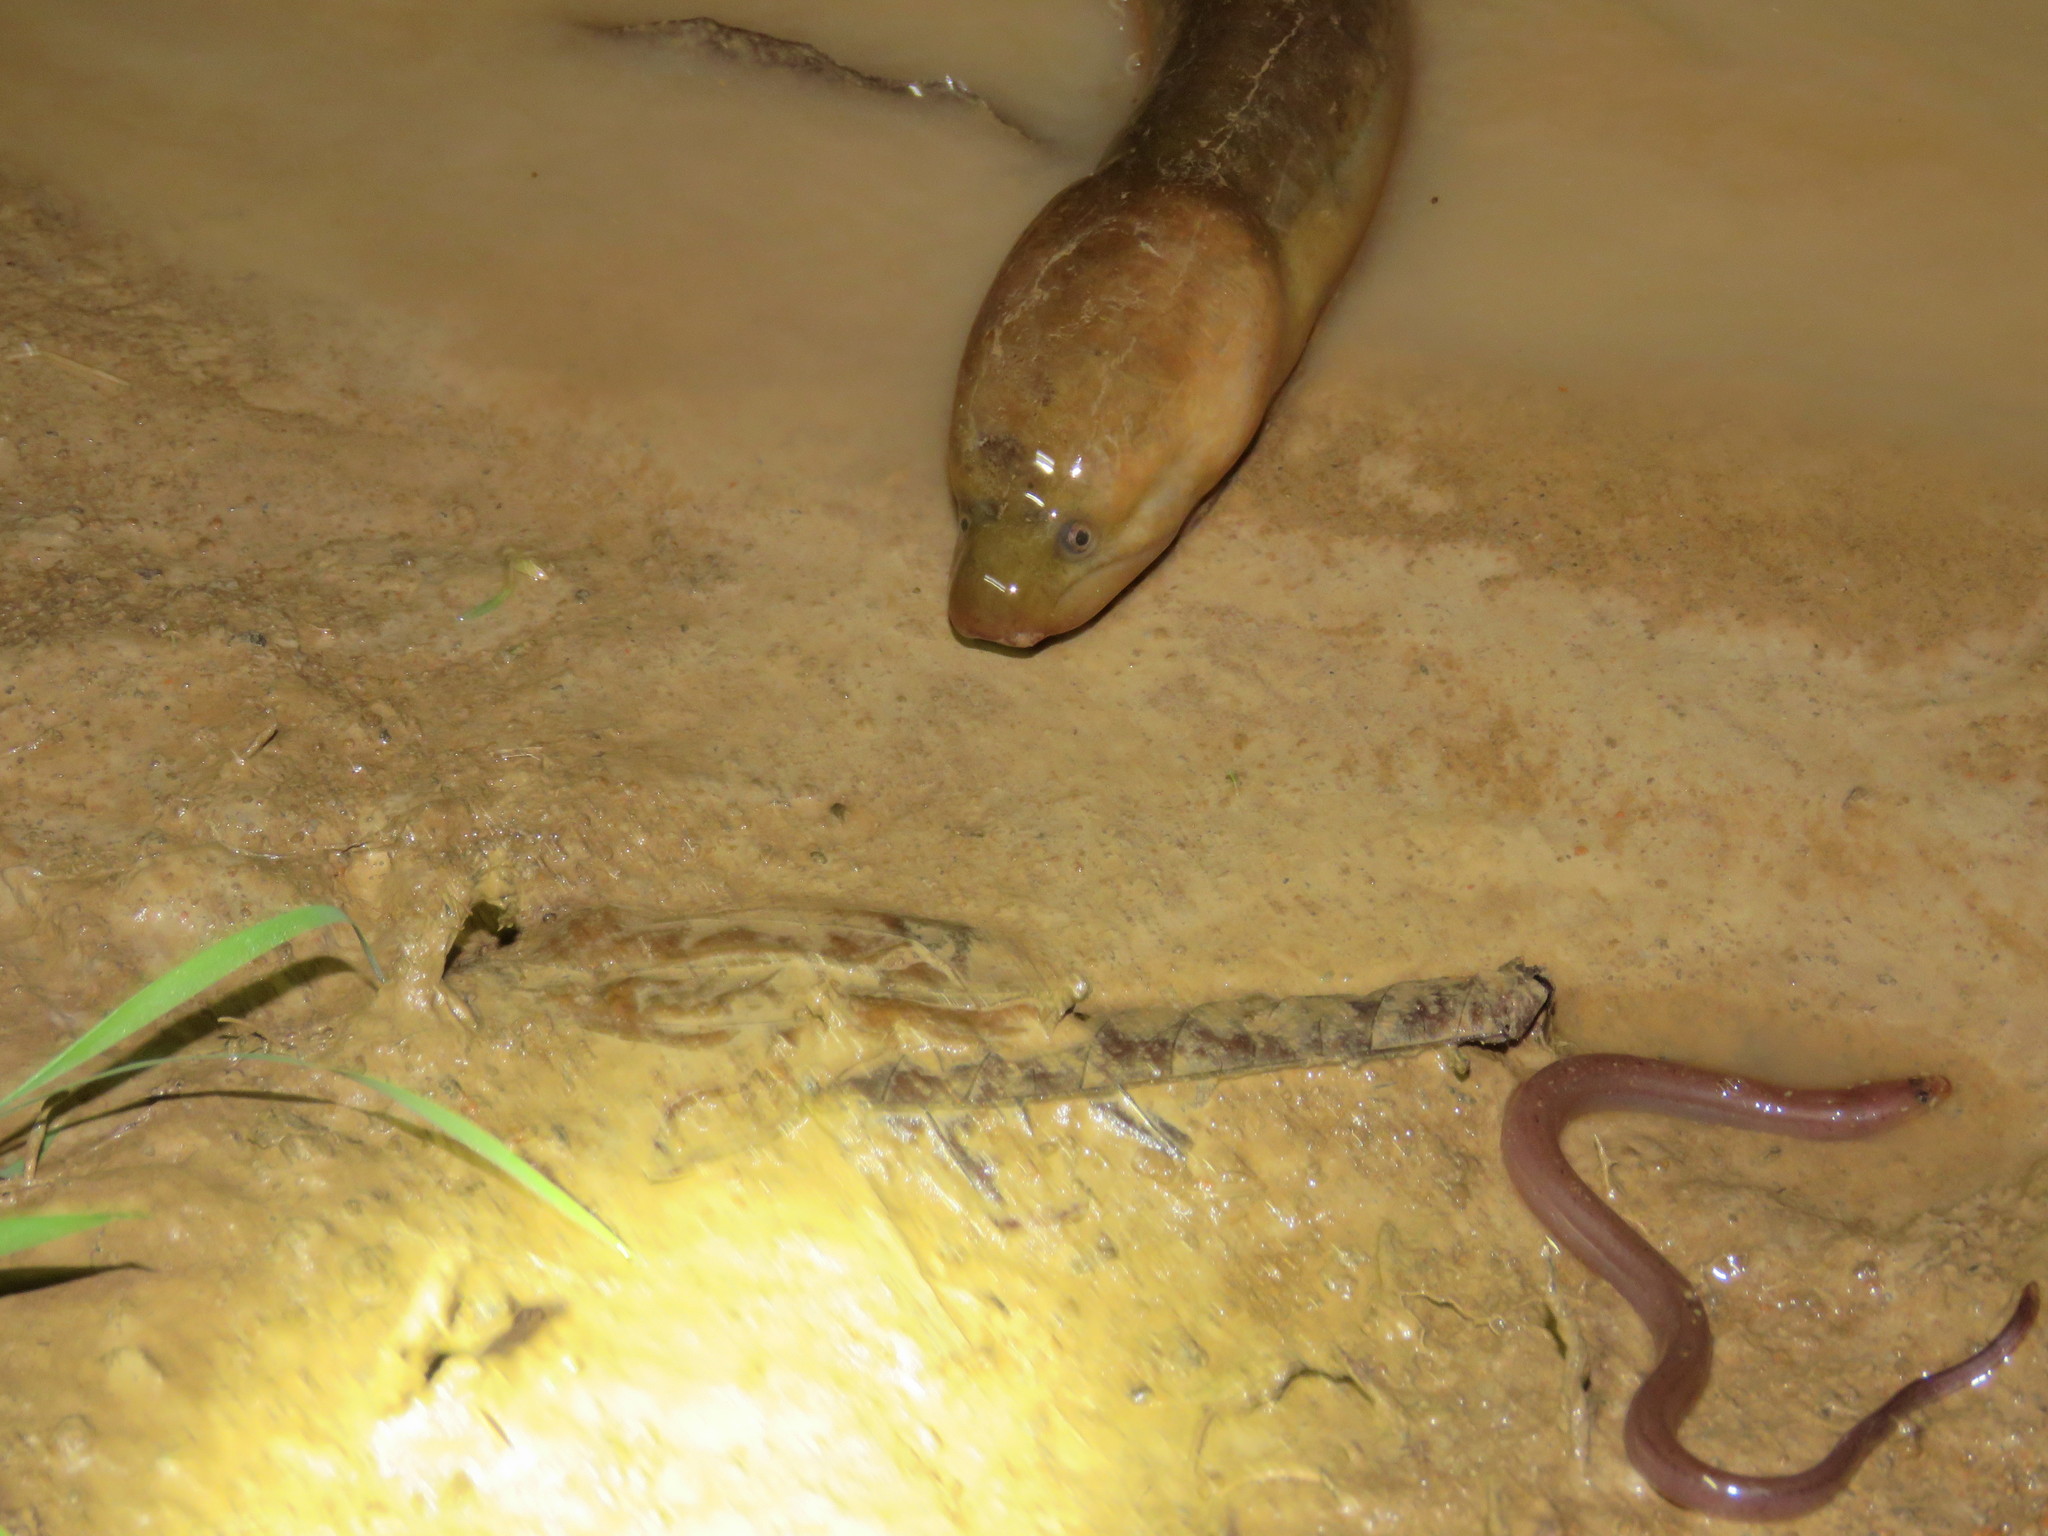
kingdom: Animalia
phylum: Chordata
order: Synbranchiformes
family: Synbranchidae
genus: Synbranchus
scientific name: Synbranchus marmoratus
